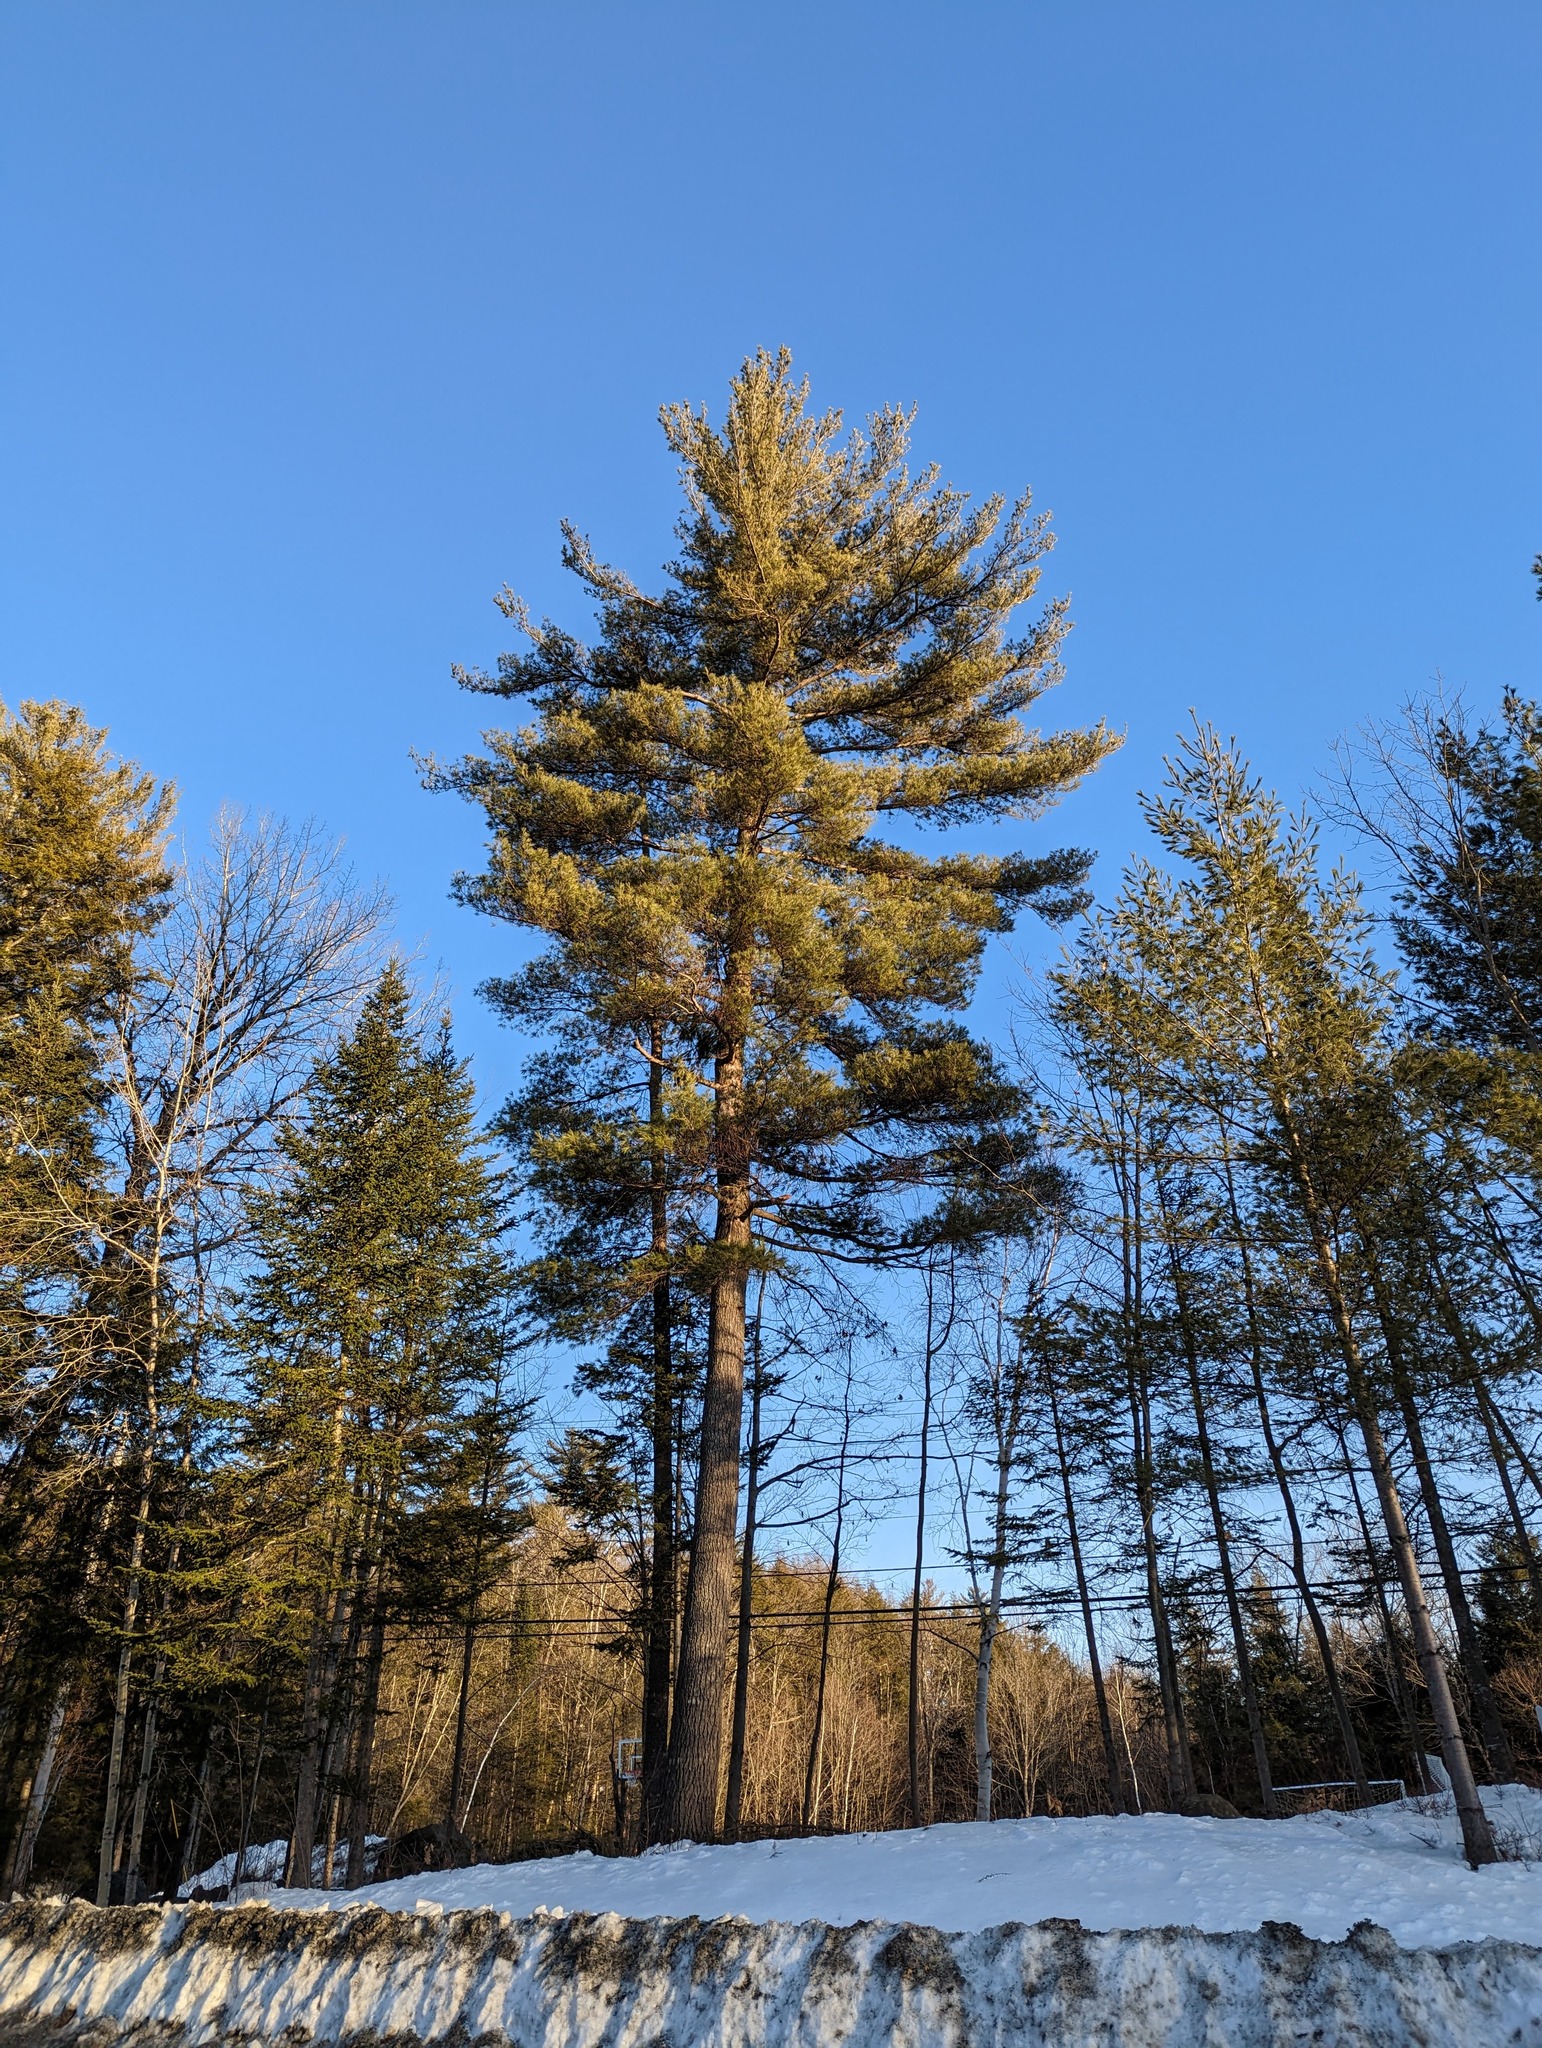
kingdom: Plantae
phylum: Tracheophyta
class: Pinopsida
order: Pinales
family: Pinaceae
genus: Pinus
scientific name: Pinus strobus
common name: Weymouth pine
